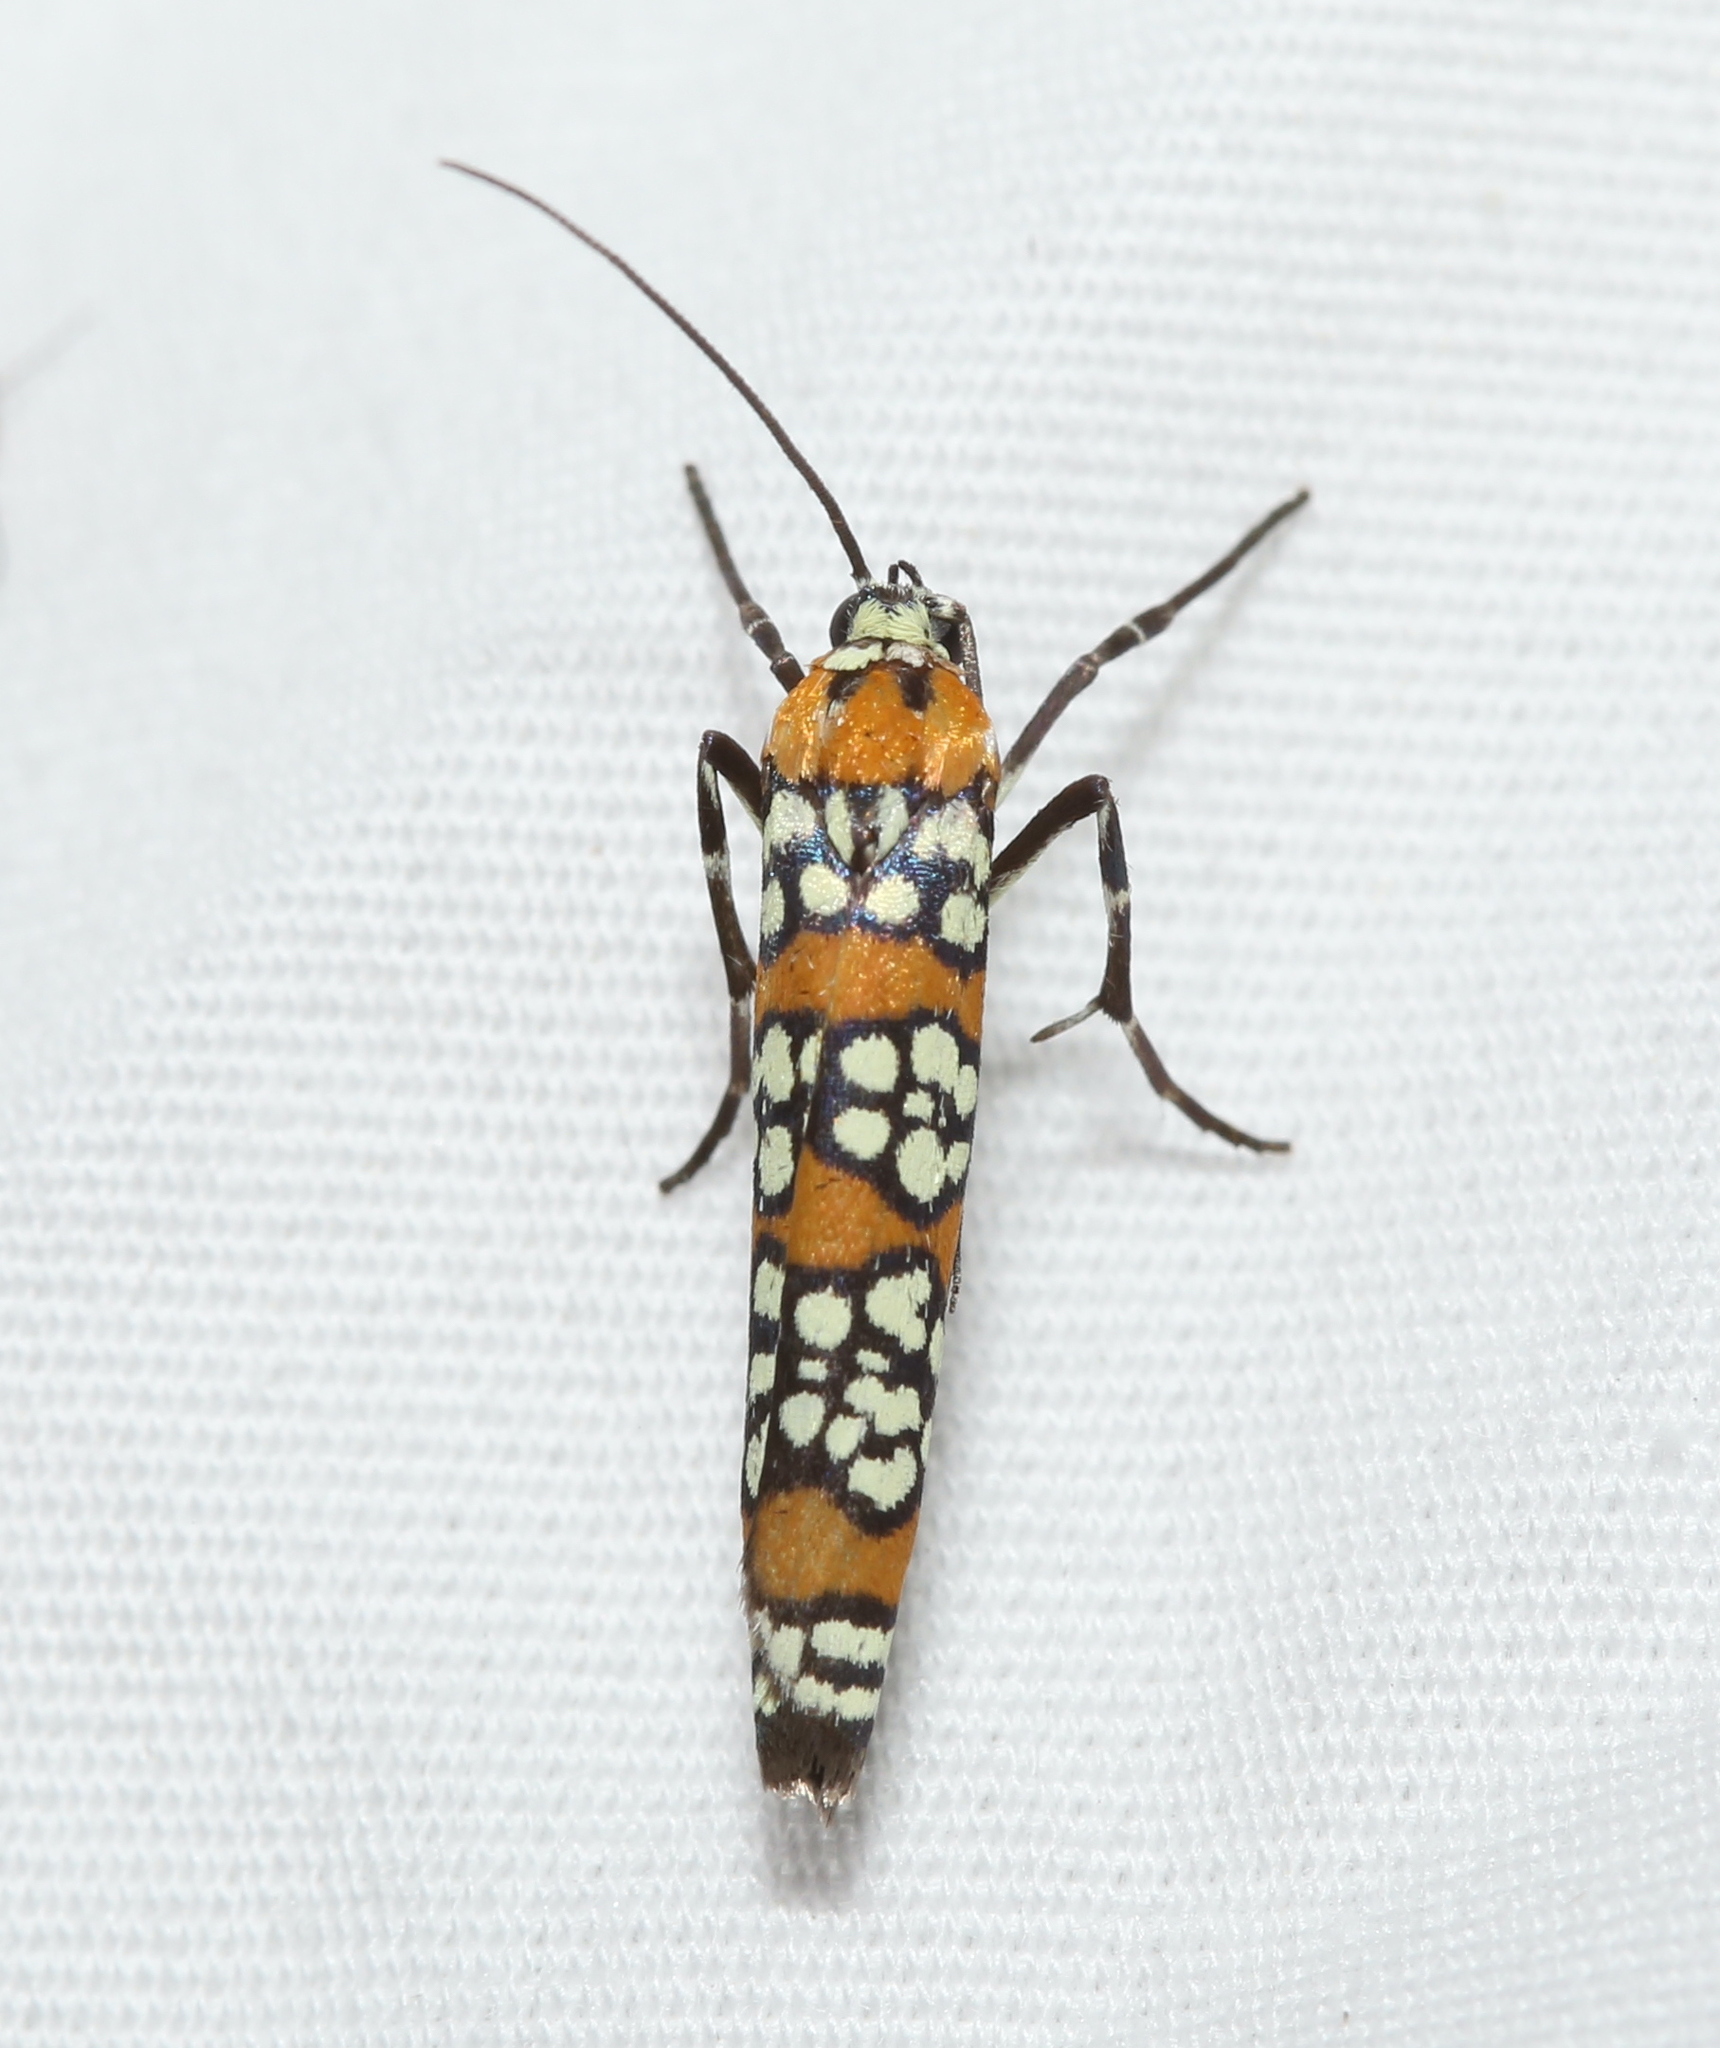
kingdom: Animalia
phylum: Arthropoda
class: Insecta
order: Lepidoptera
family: Attevidae
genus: Atteva
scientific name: Atteva punctella
